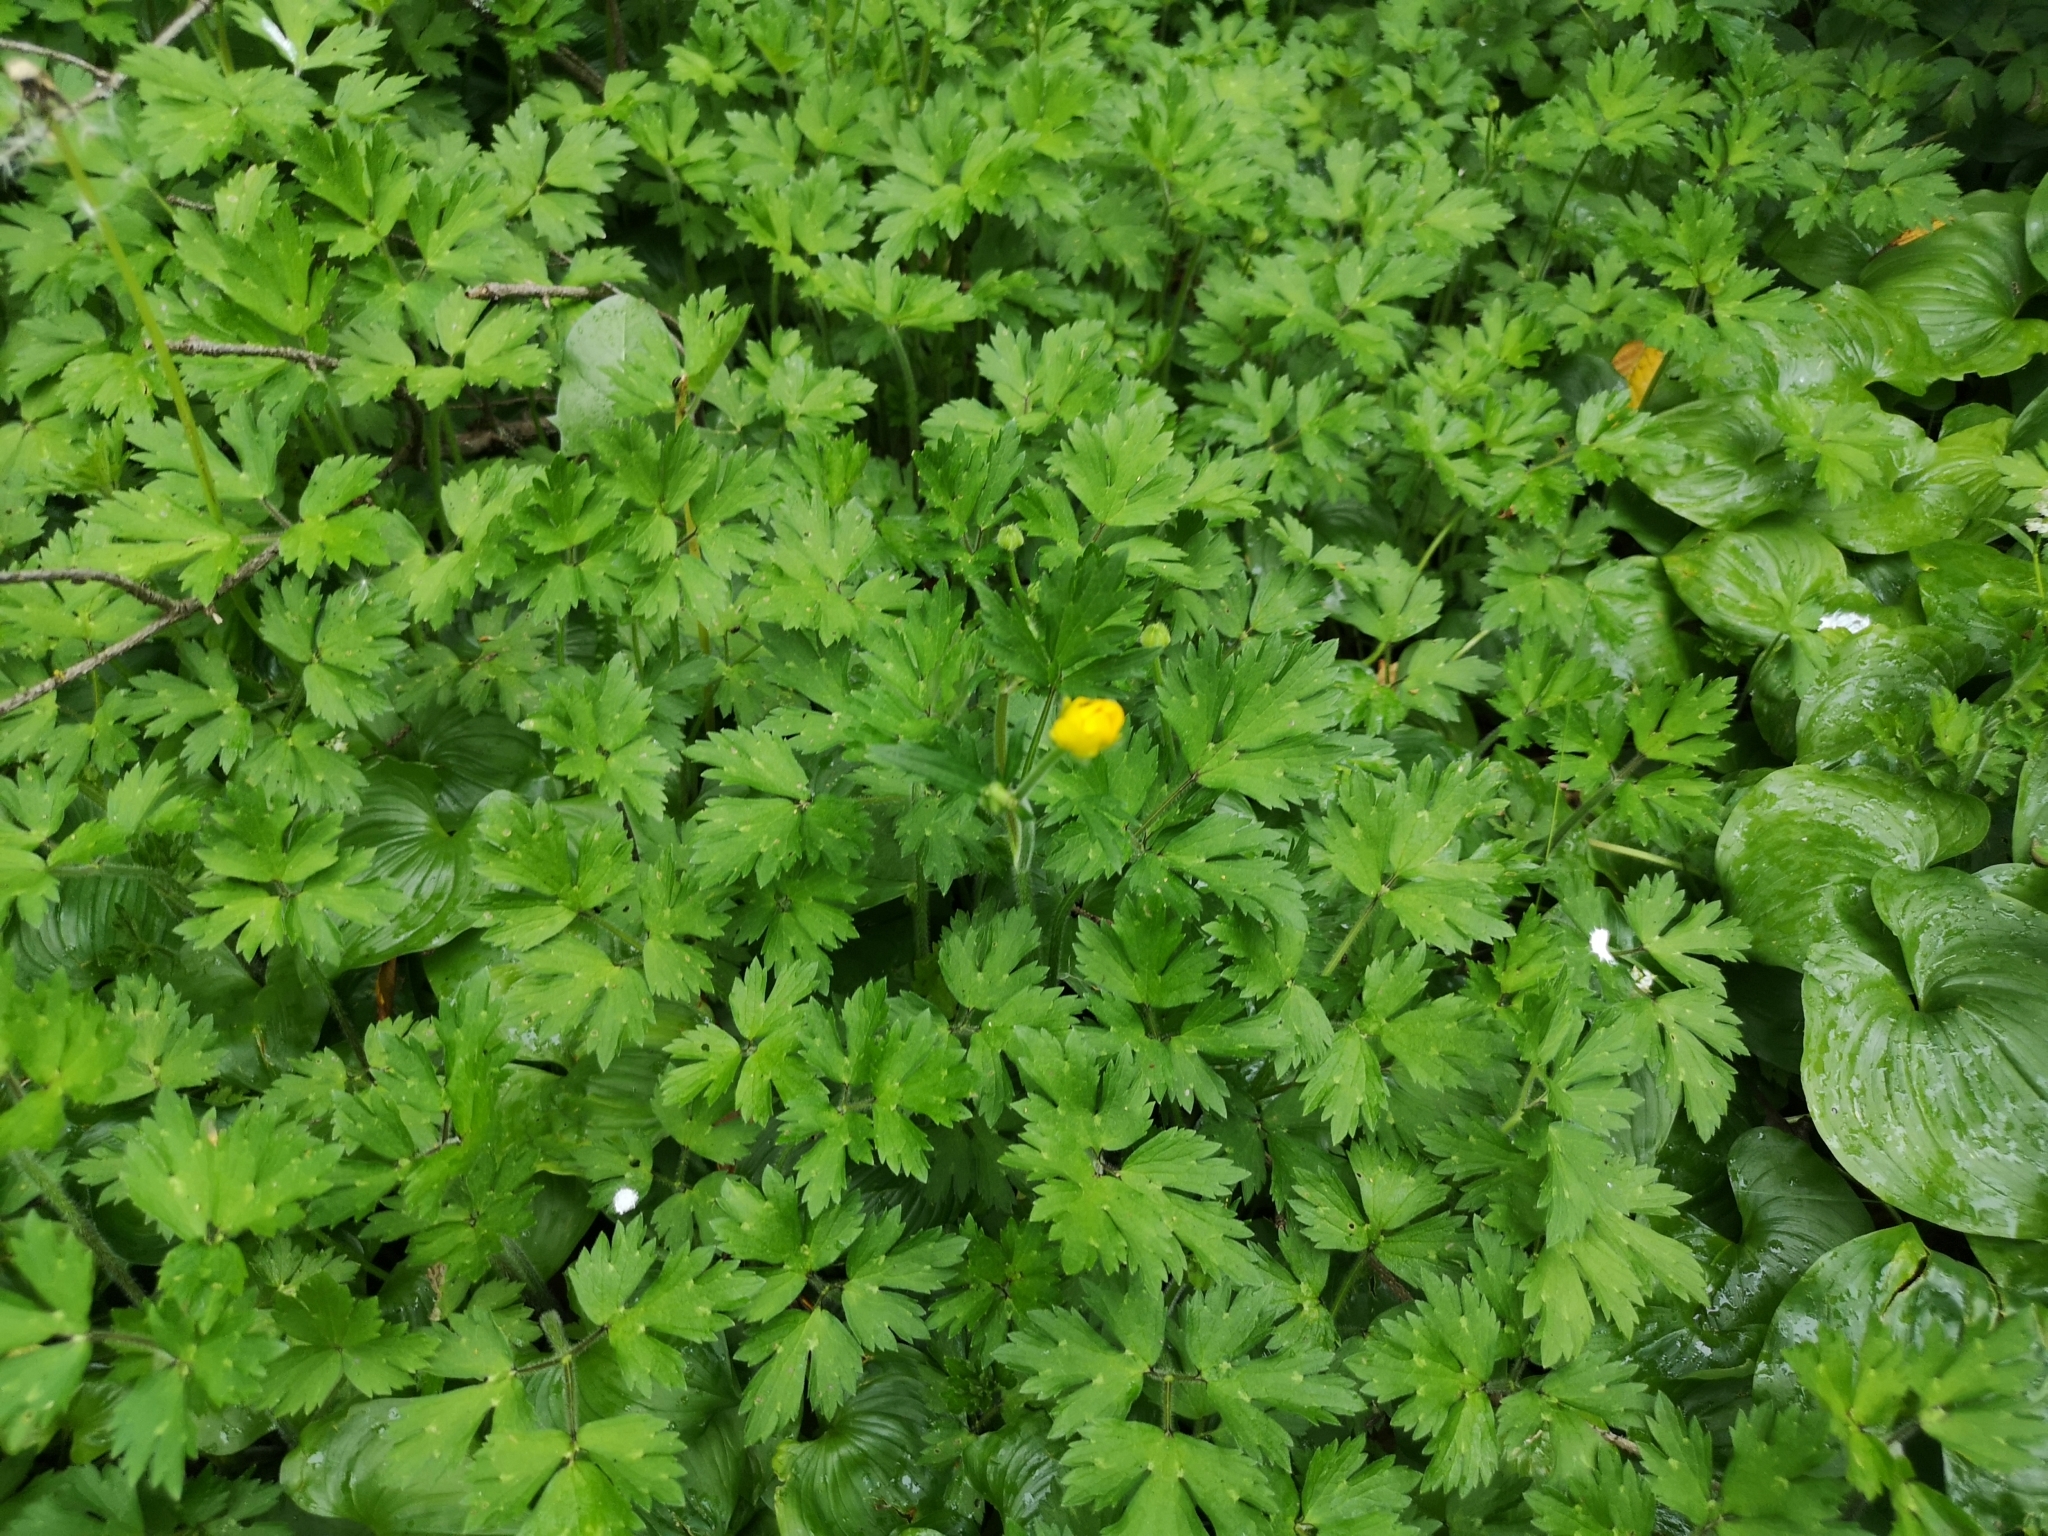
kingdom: Plantae
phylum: Tracheophyta
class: Magnoliopsida
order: Ranunculales
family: Ranunculaceae
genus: Ranunculus
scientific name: Ranunculus repens
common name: Creeping buttercup
